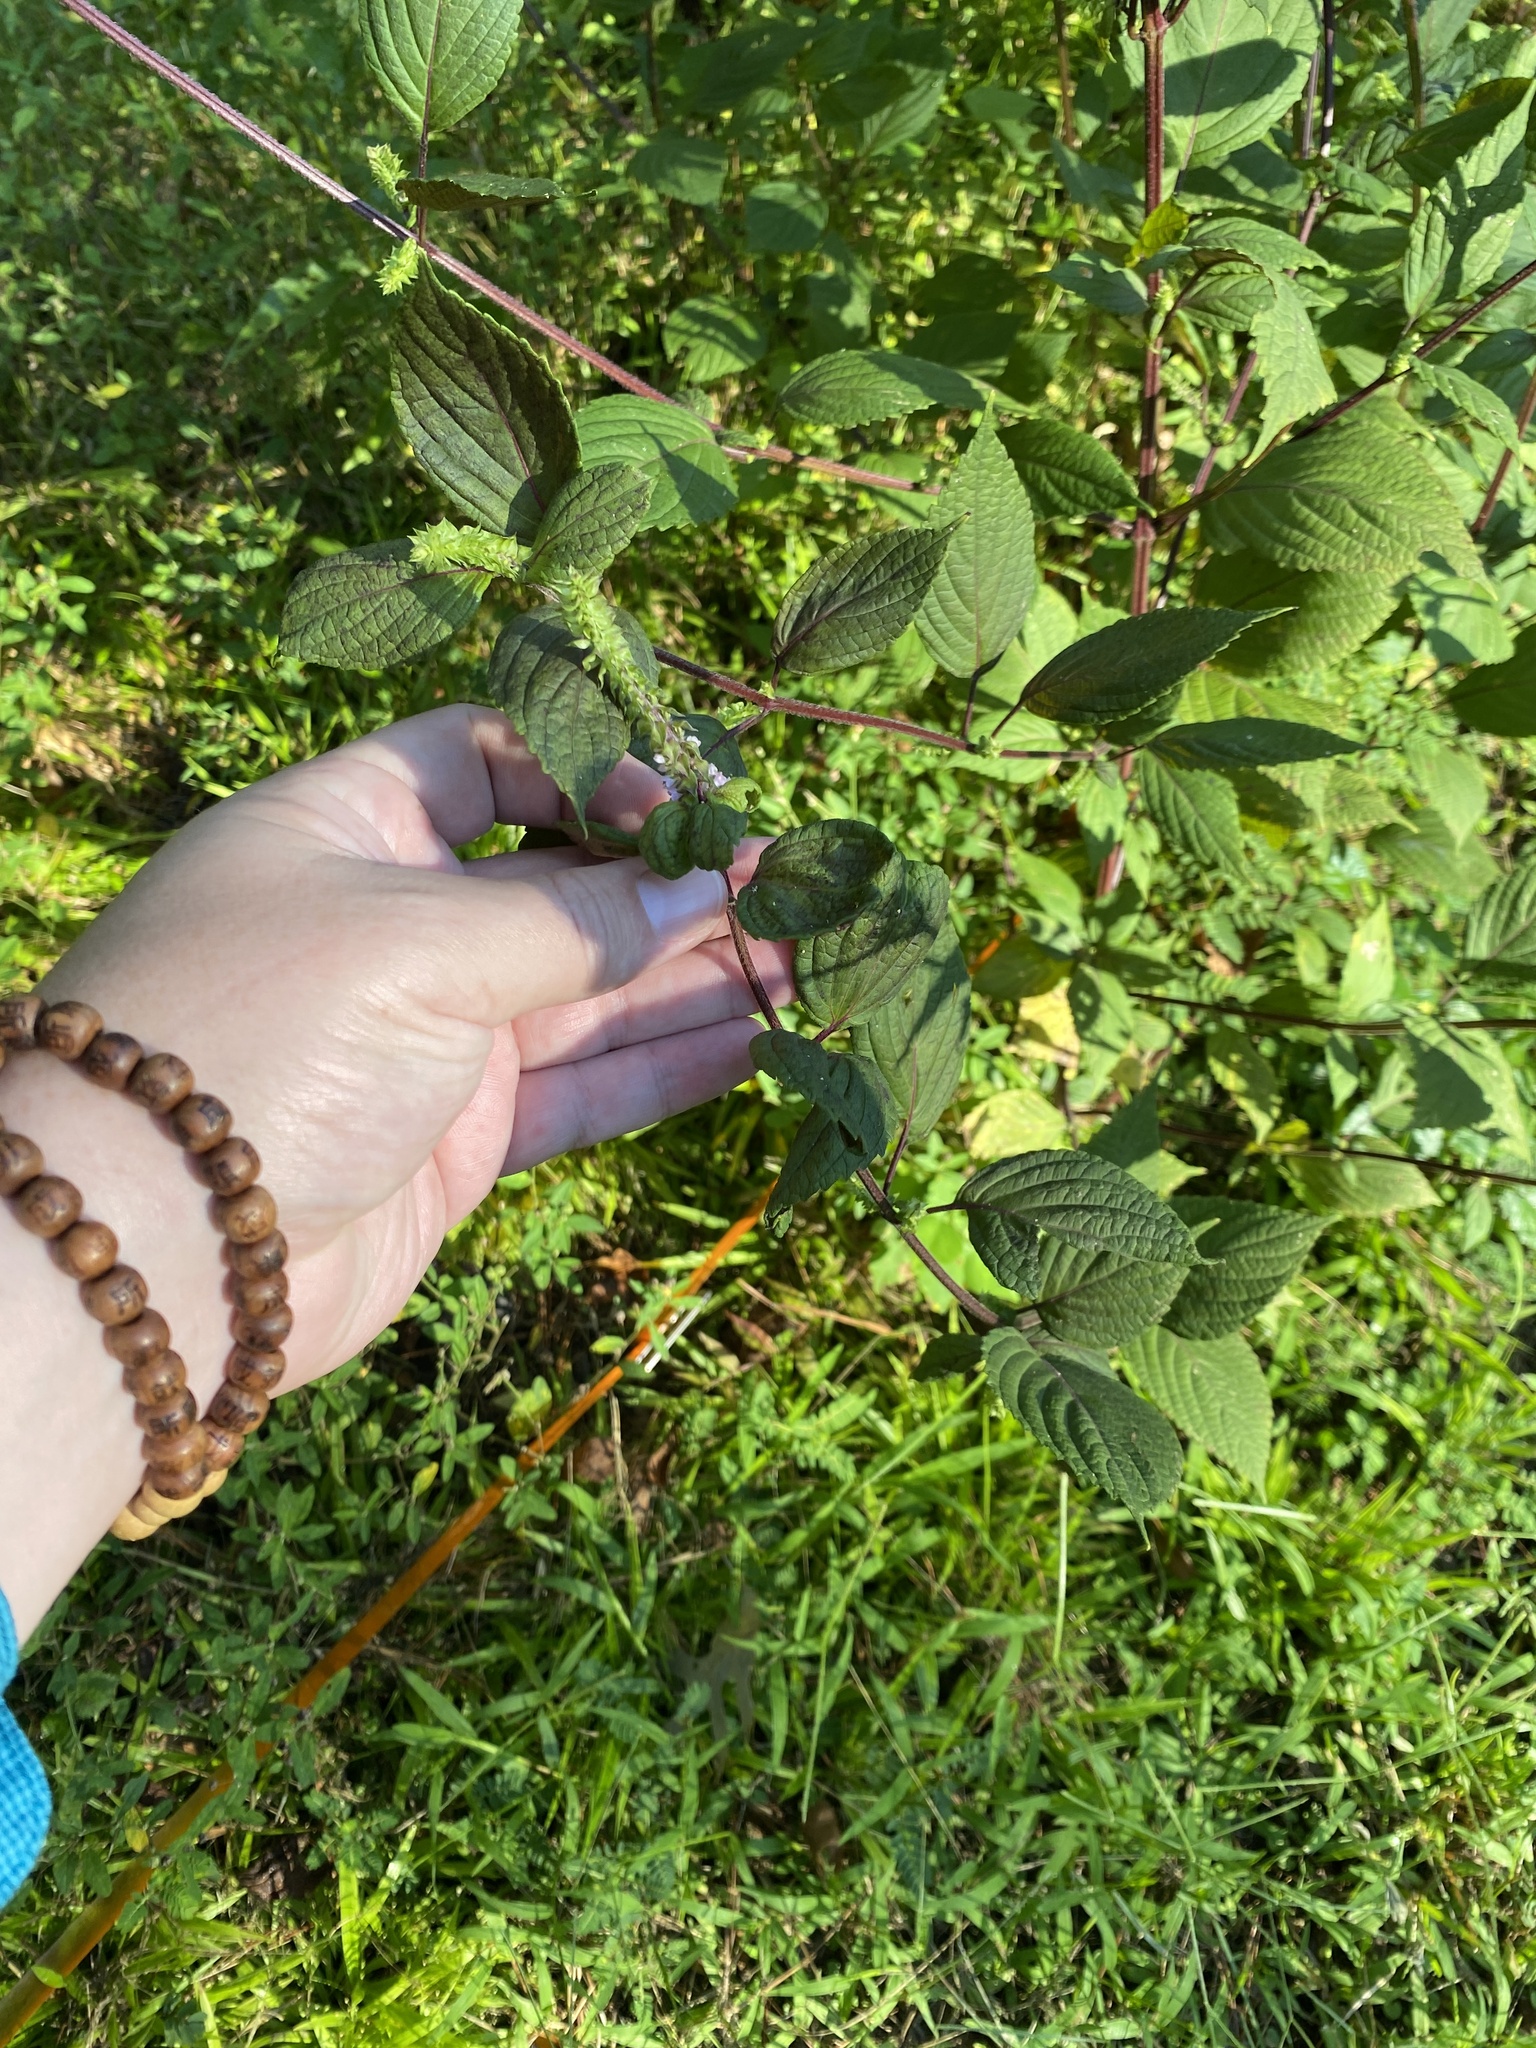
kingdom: Plantae
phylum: Tracheophyta
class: Magnoliopsida
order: Lamiales
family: Lamiaceae
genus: Perilla
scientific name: Perilla frutescens
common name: Perilla
